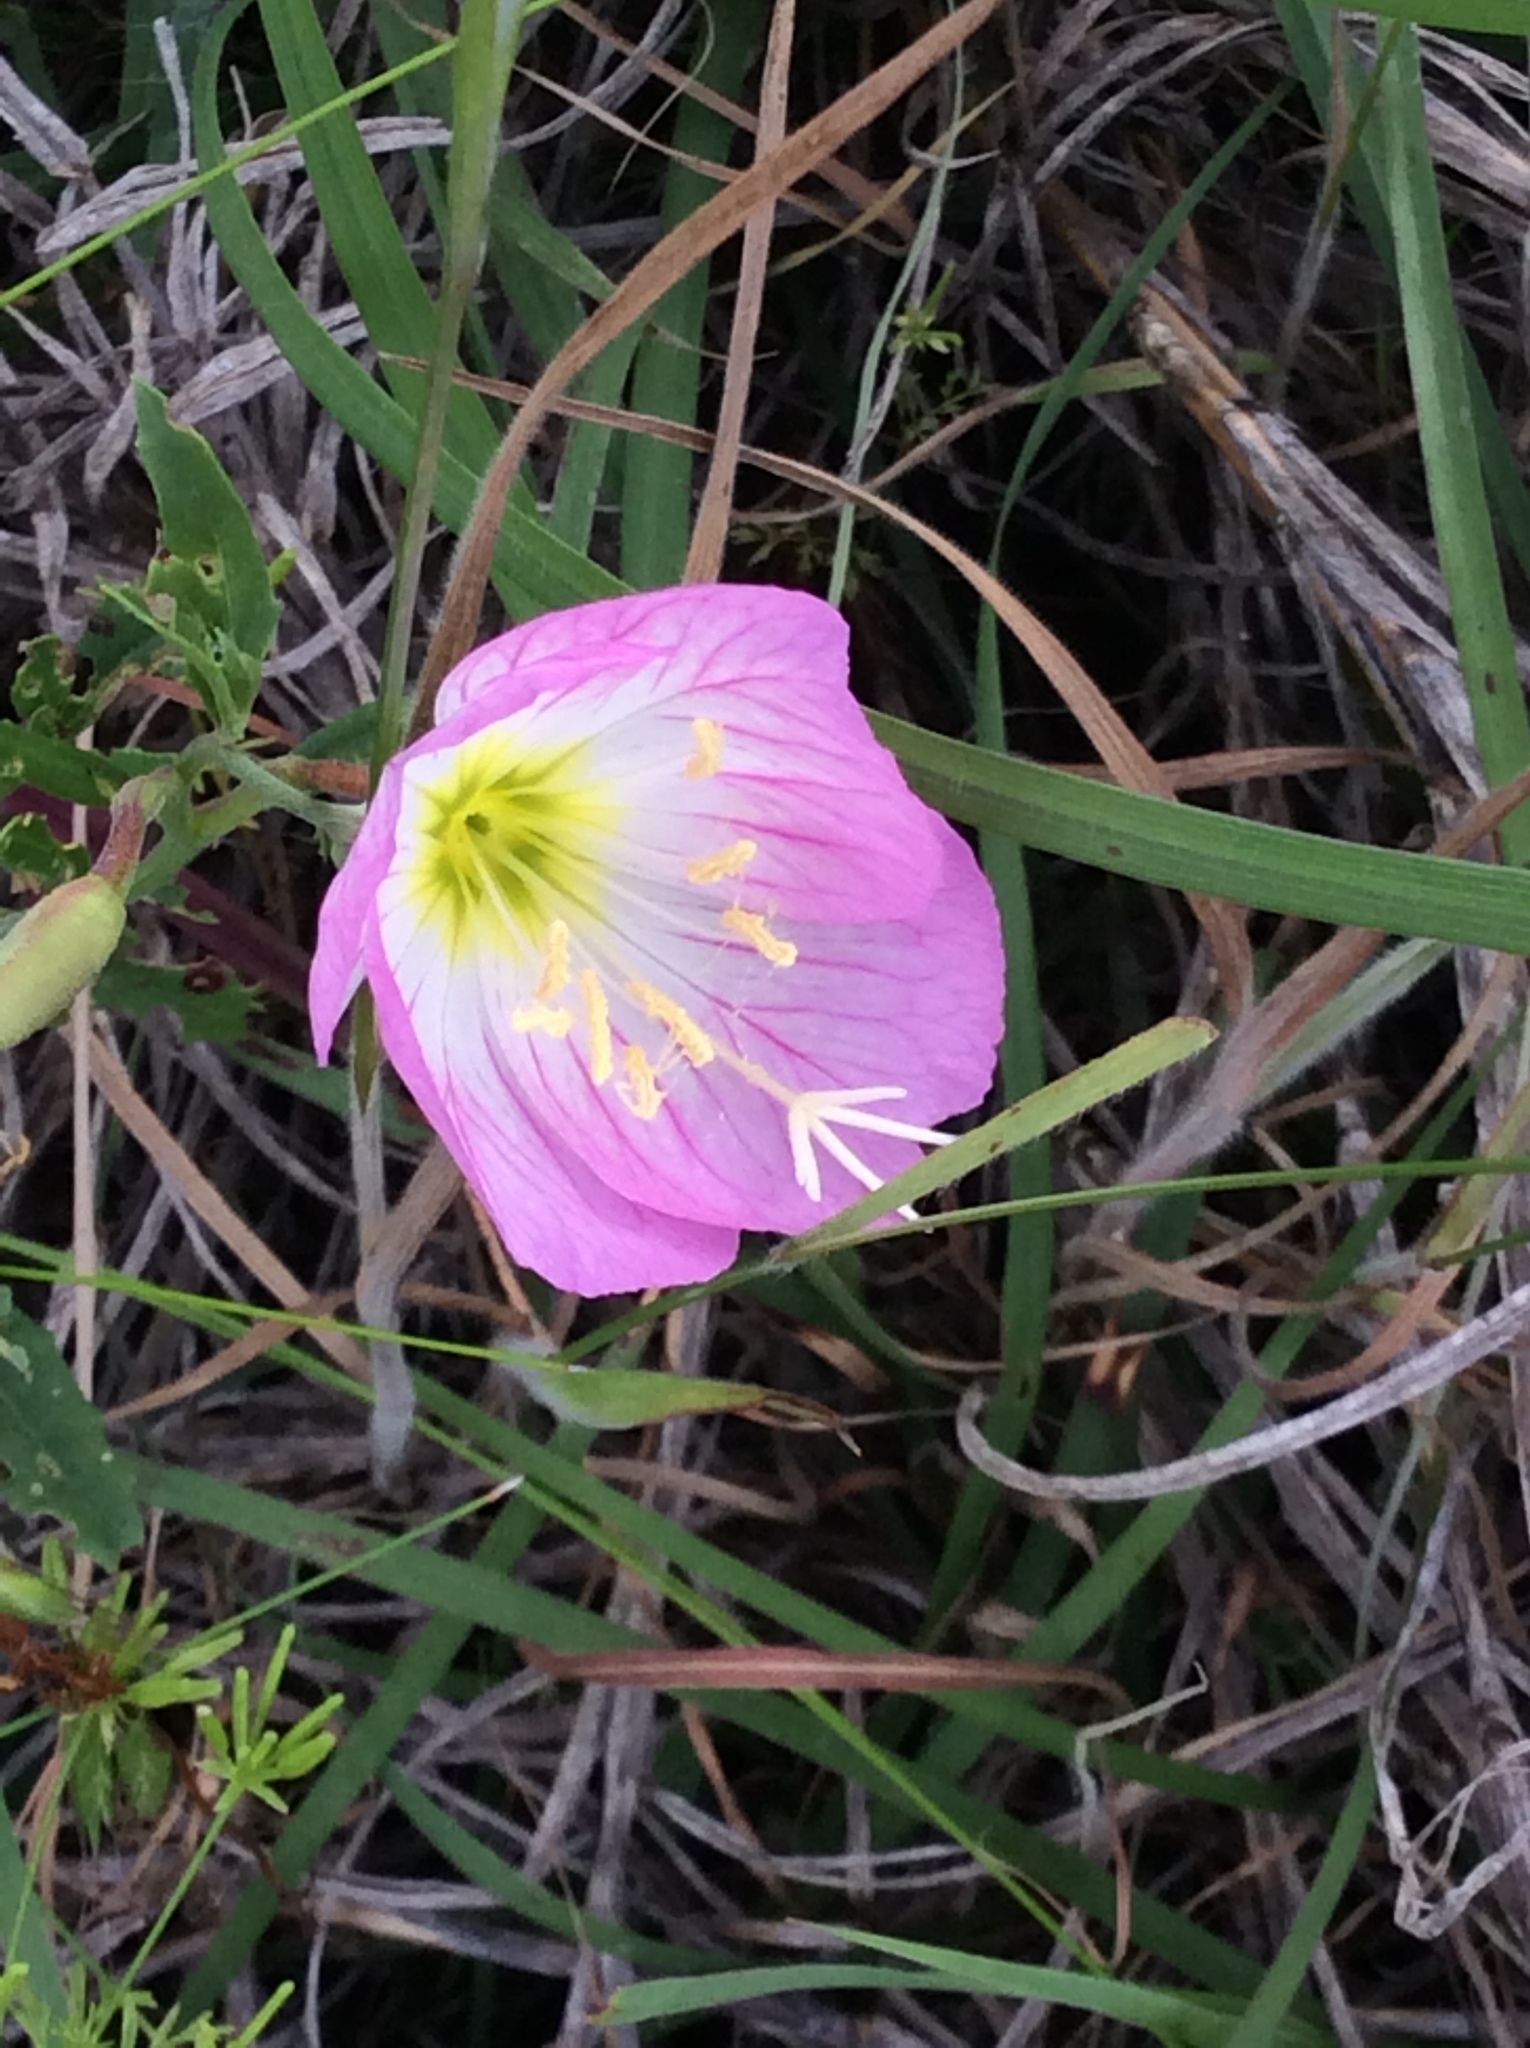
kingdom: Plantae
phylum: Tracheophyta
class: Magnoliopsida
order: Myrtales
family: Onagraceae
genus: Oenothera
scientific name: Oenothera speciosa
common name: White evening-primrose
